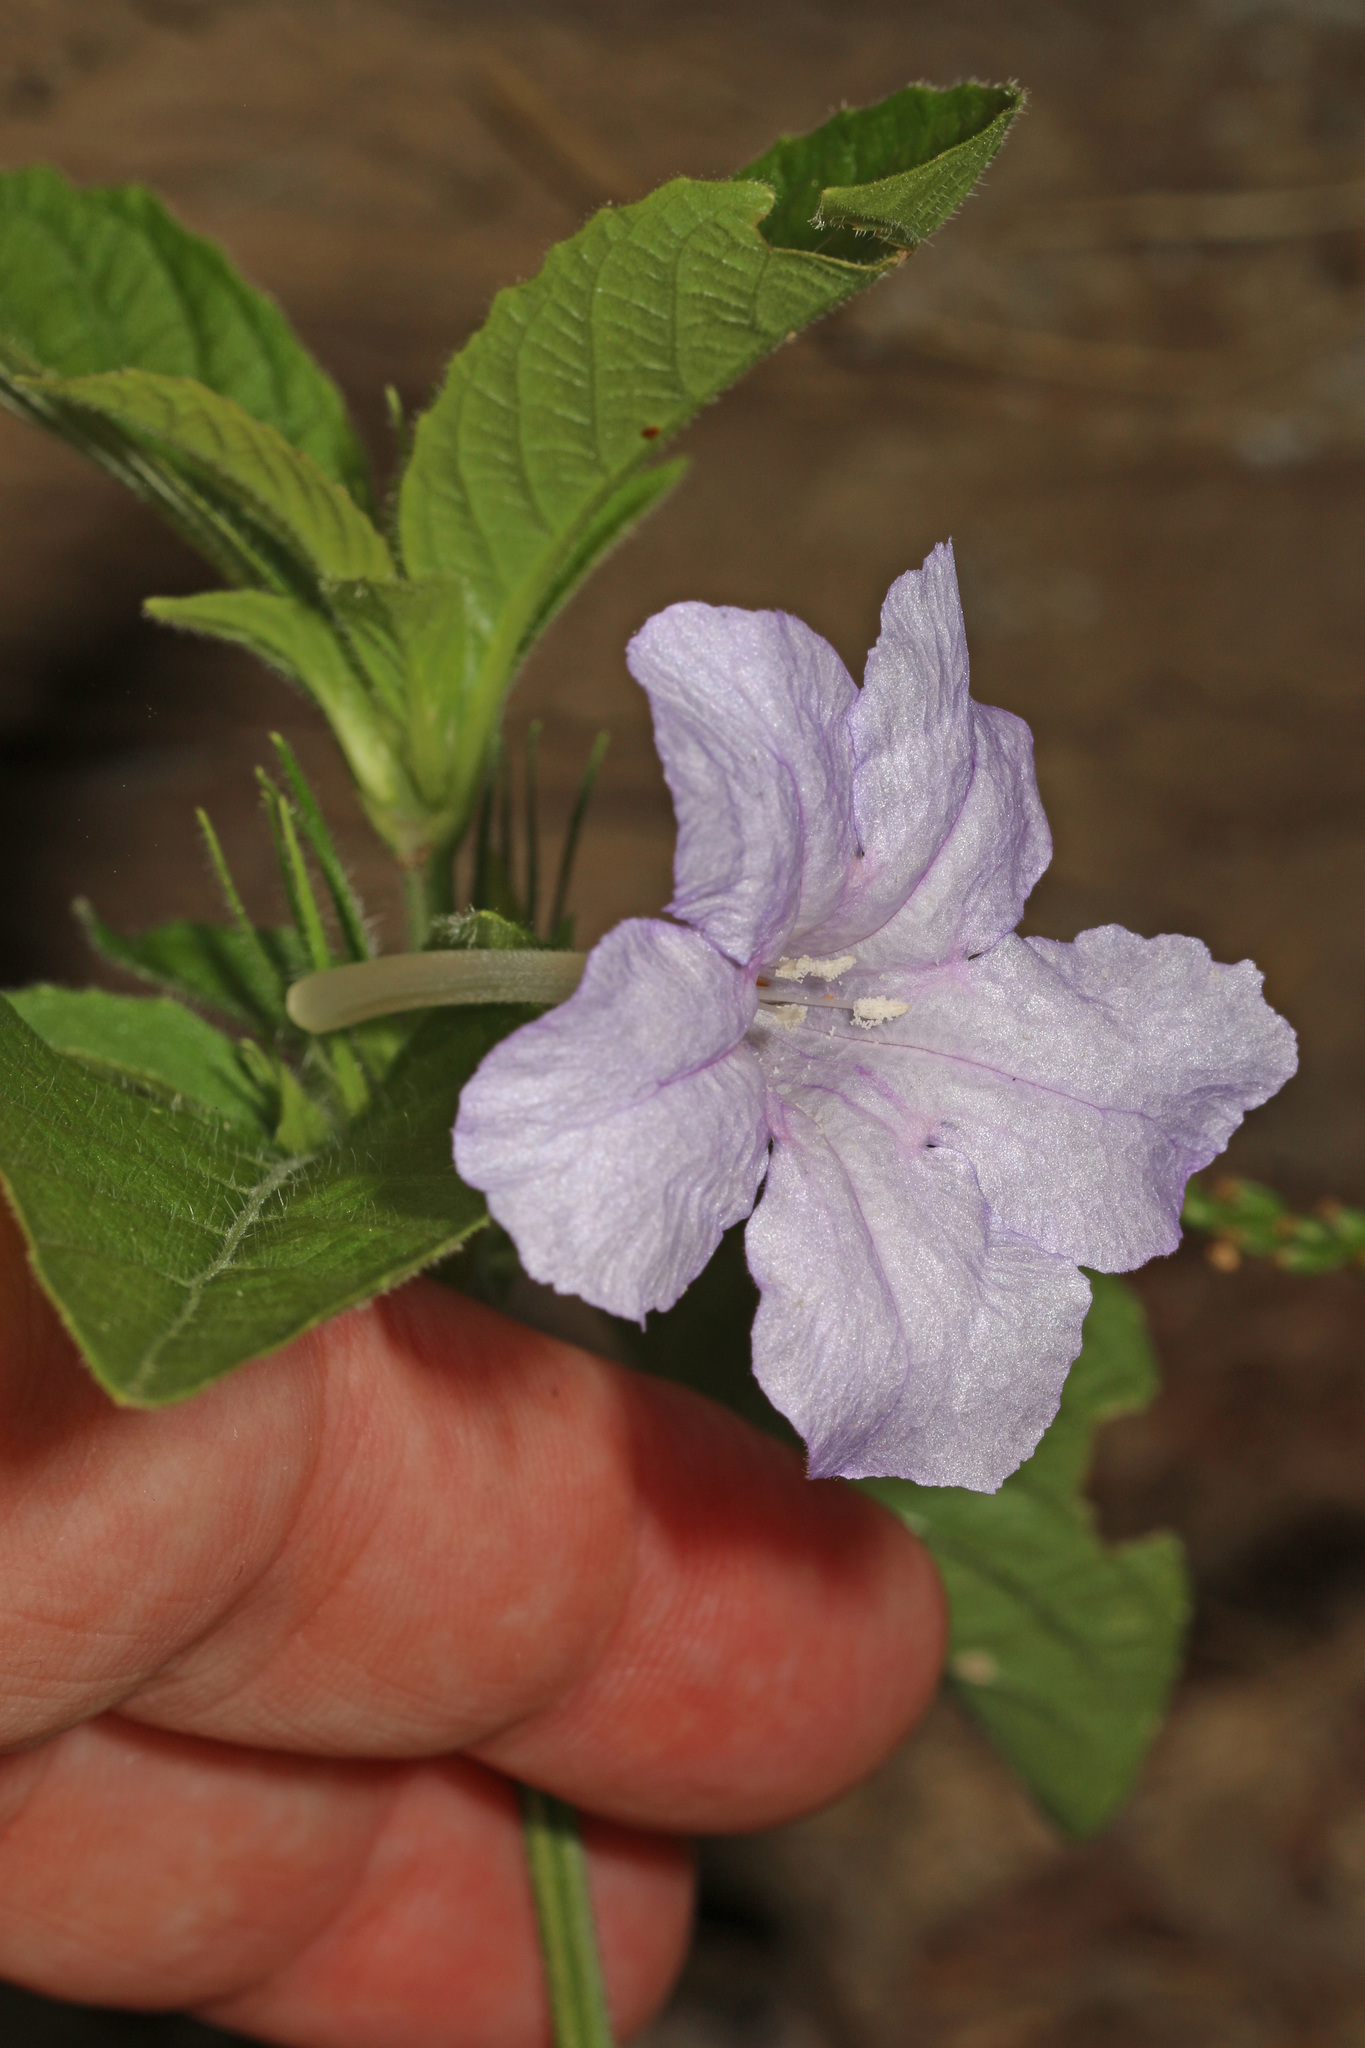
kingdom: Plantae
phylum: Tracheophyta
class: Magnoliopsida
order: Lamiales
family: Acanthaceae
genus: Ruellia
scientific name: Ruellia caroliniensis
